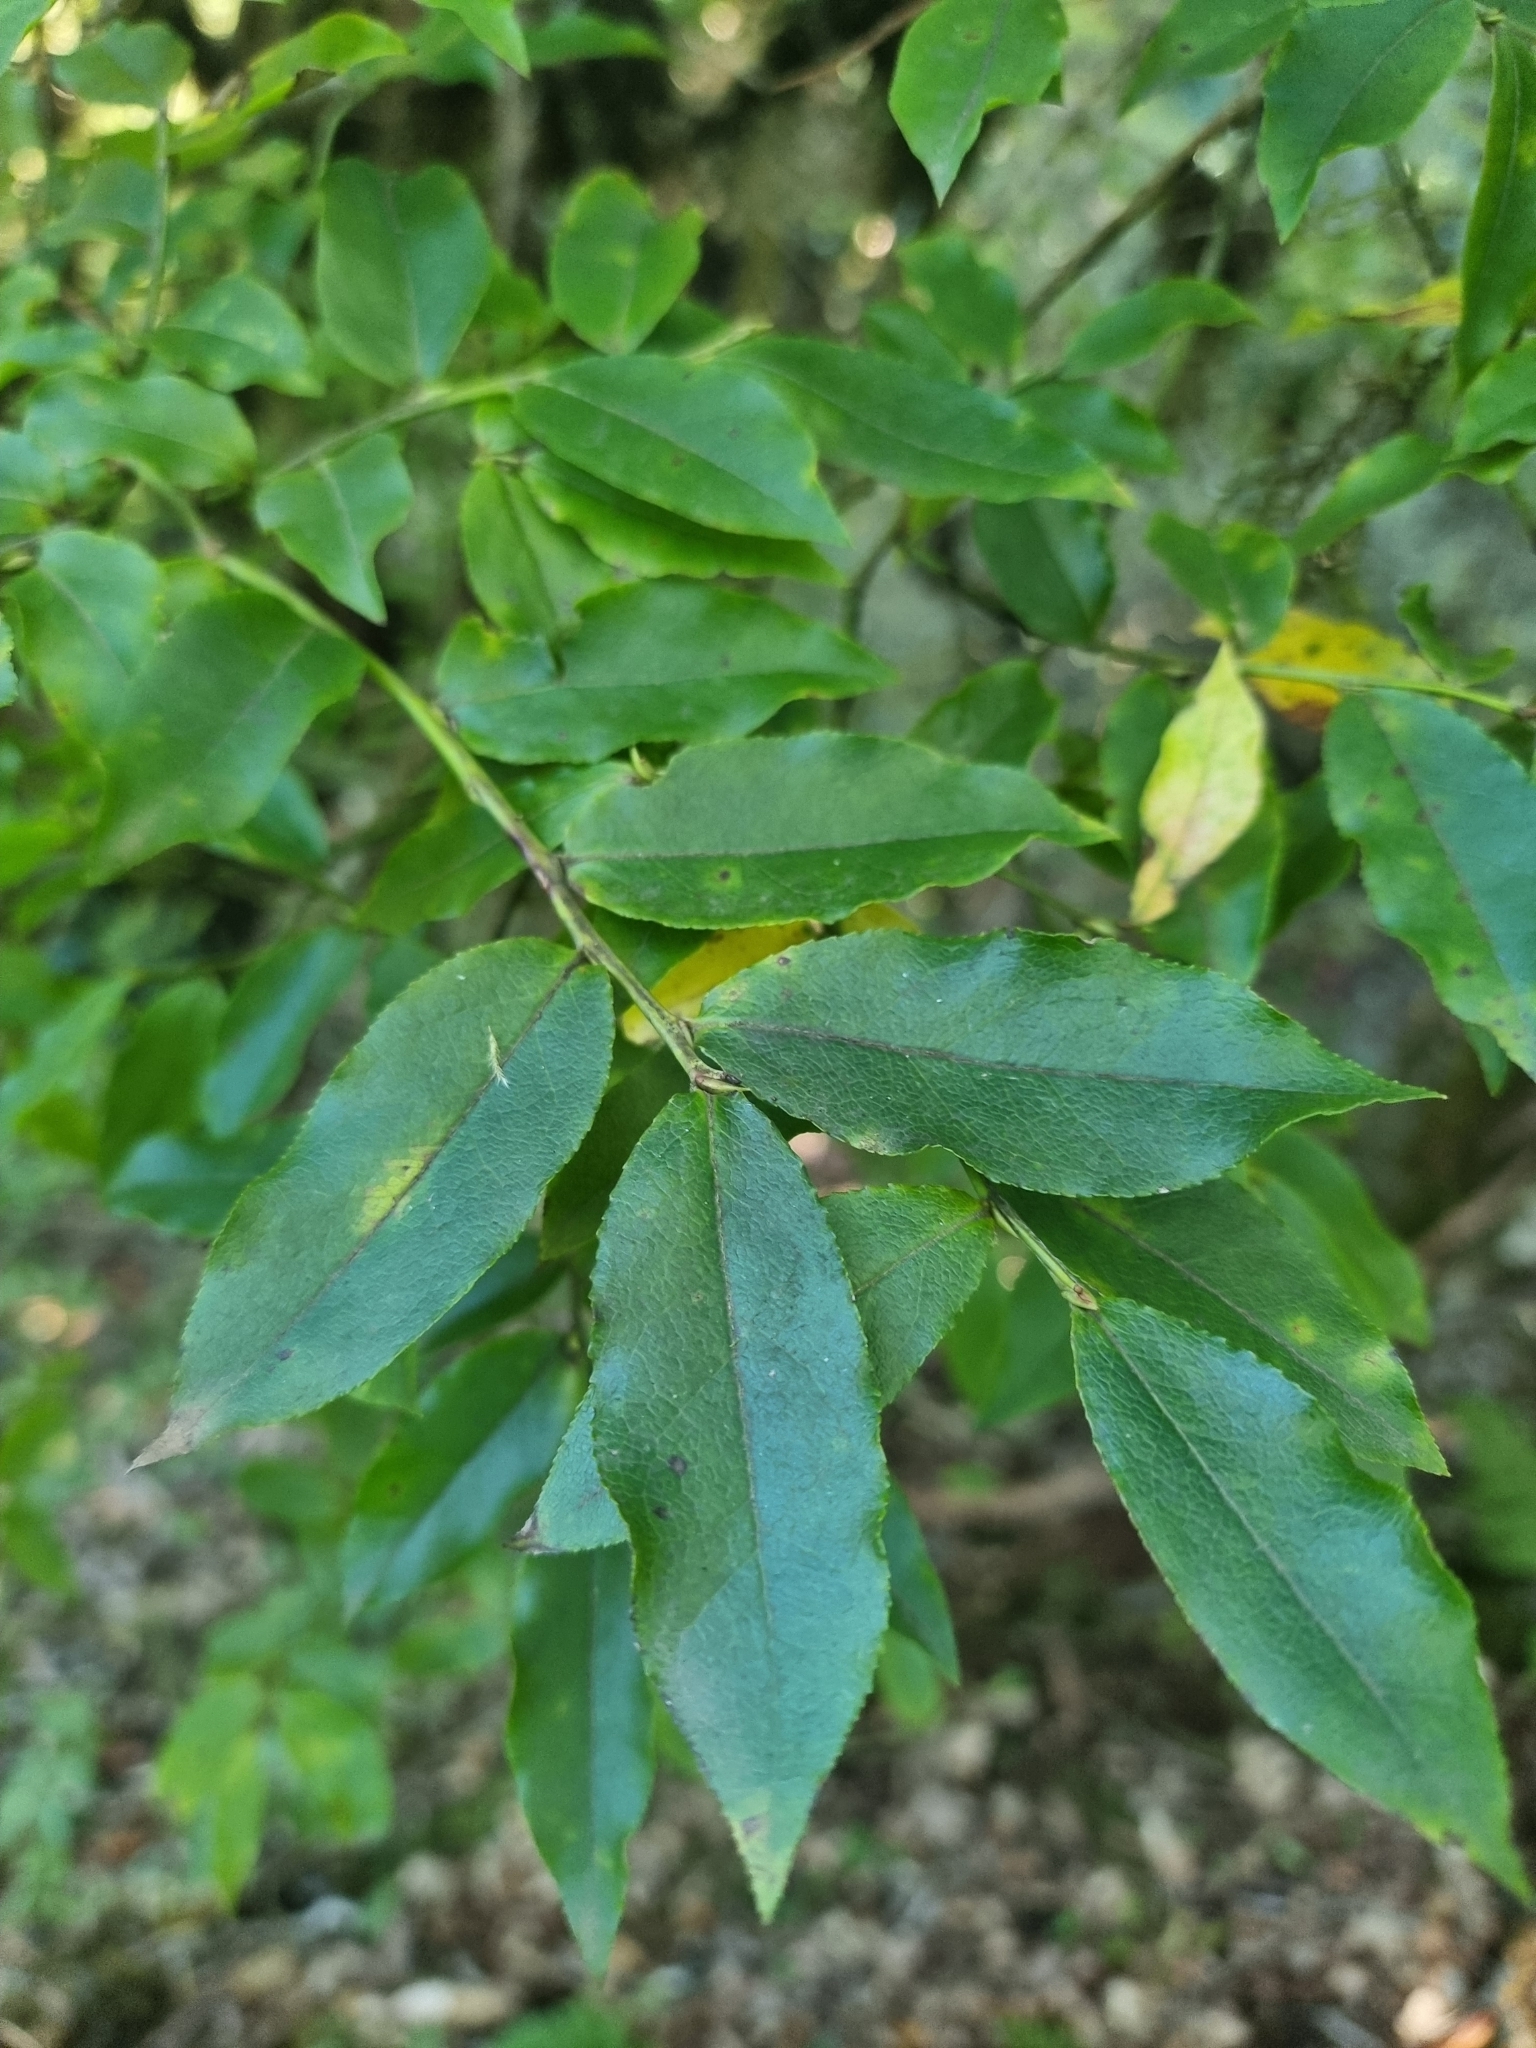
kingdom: Plantae
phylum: Tracheophyta
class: Magnoliopsida
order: Ericales
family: Ericaceae
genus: Vaccinium
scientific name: Vaccinium padifolium
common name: Madeiran blueberry
